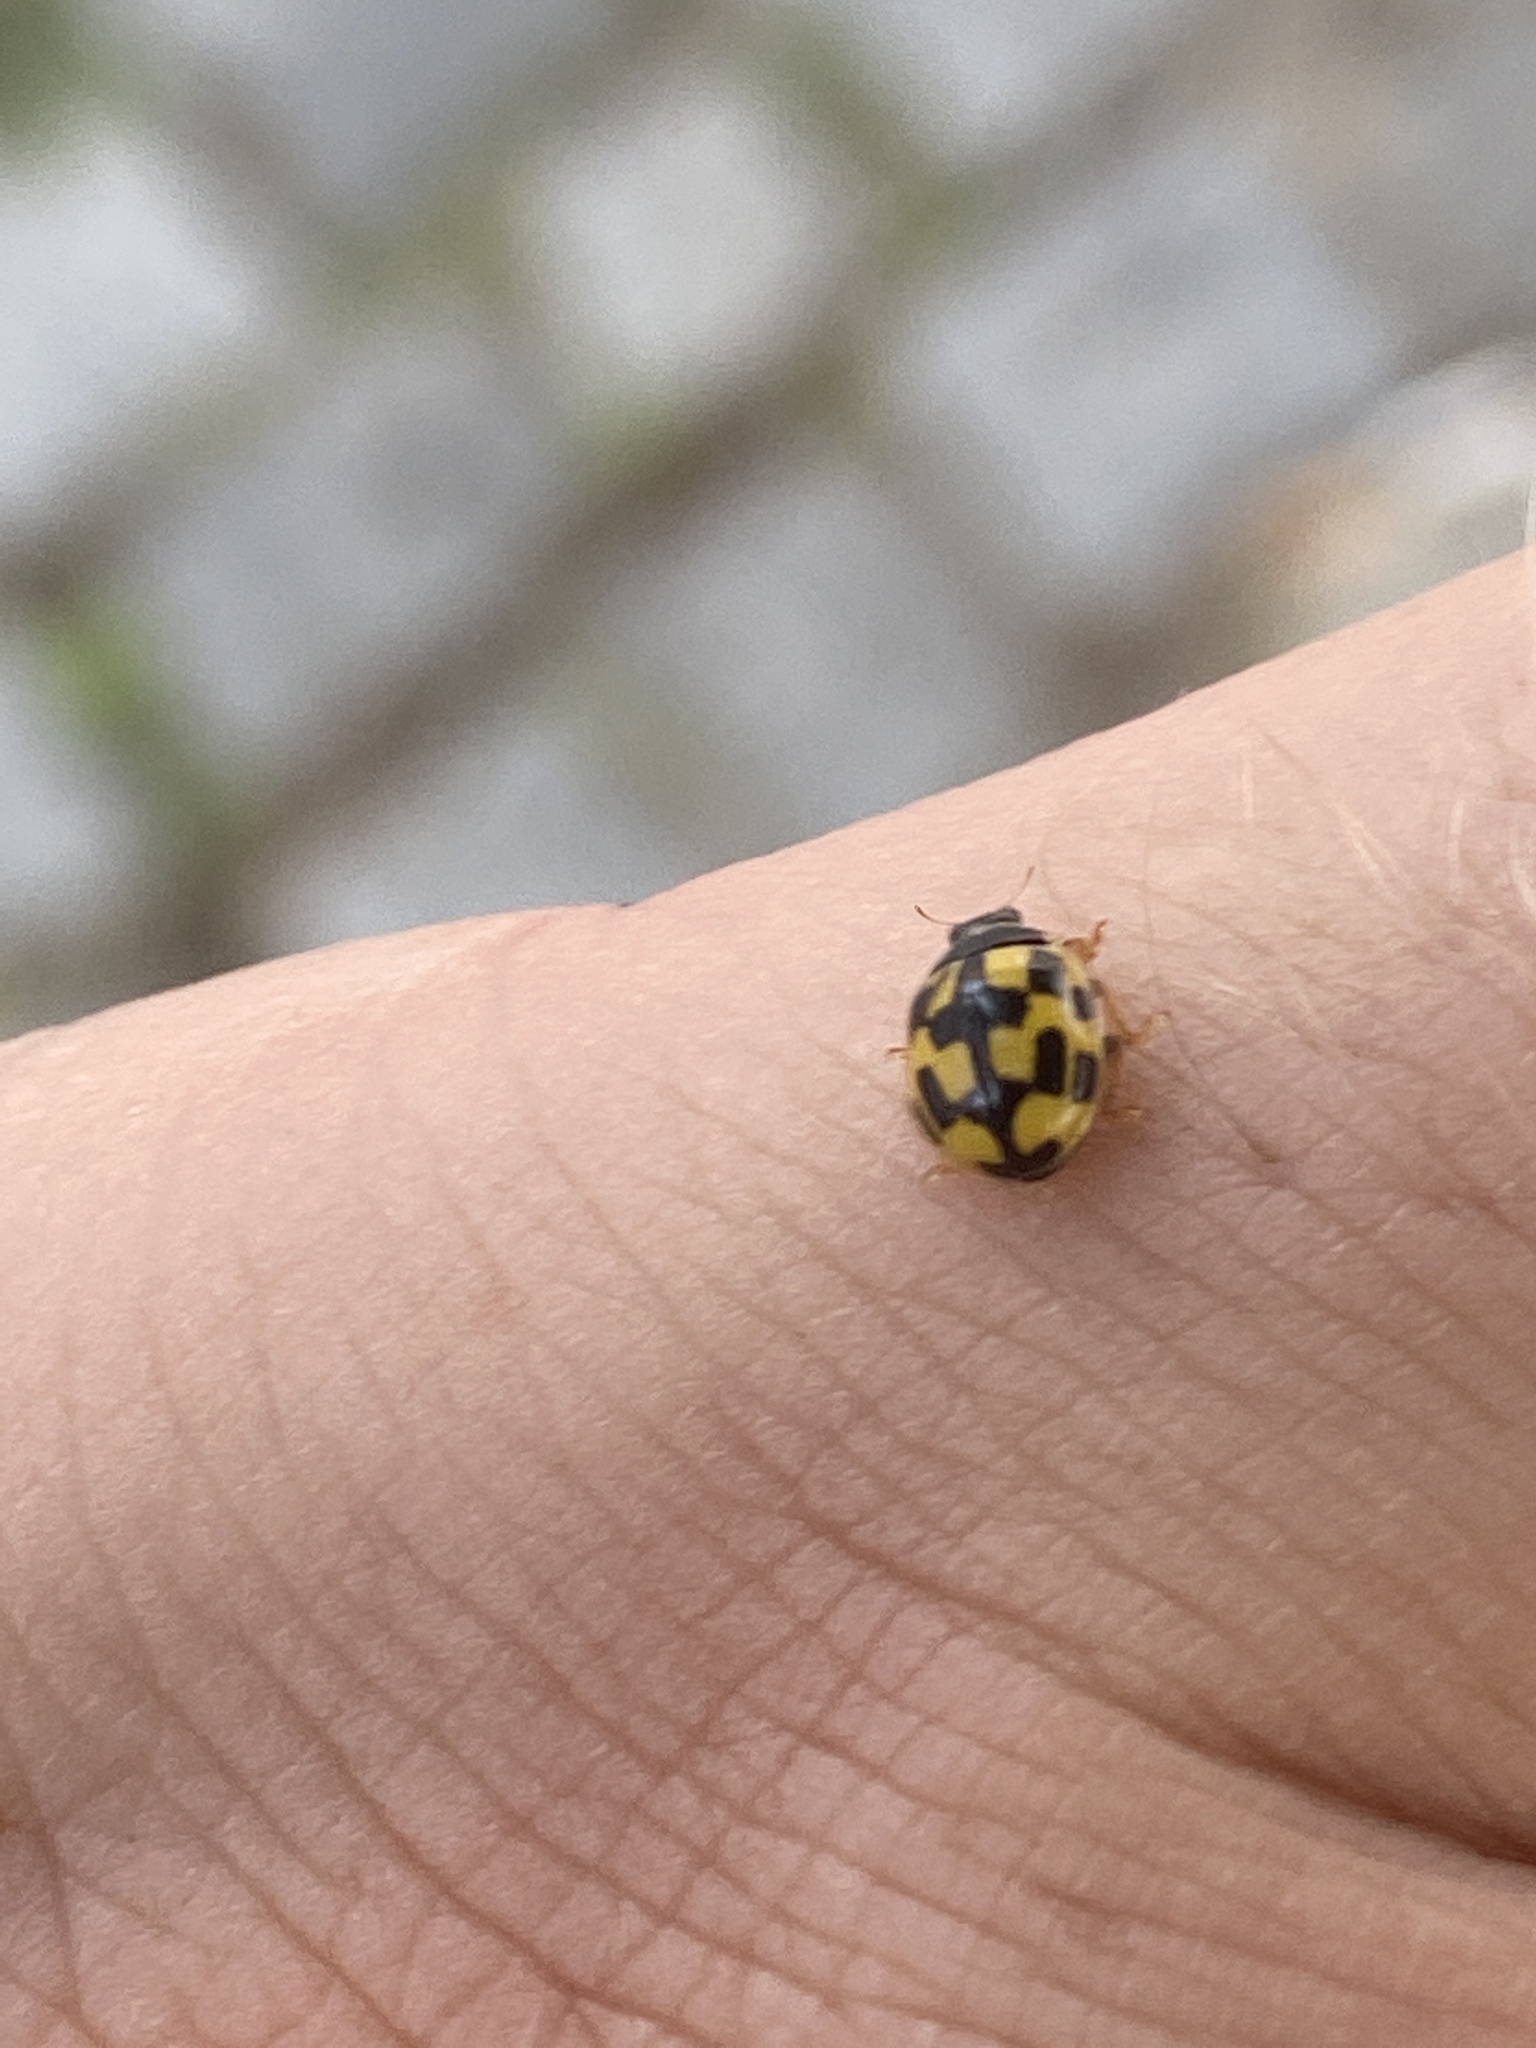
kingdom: Animalia
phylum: Arthropoda
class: Insecta
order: Coleoptera
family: Coccinellidae
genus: Propylaea
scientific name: Propylaea quatuordecimpunctata
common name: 14-spotted ladybird beetle
